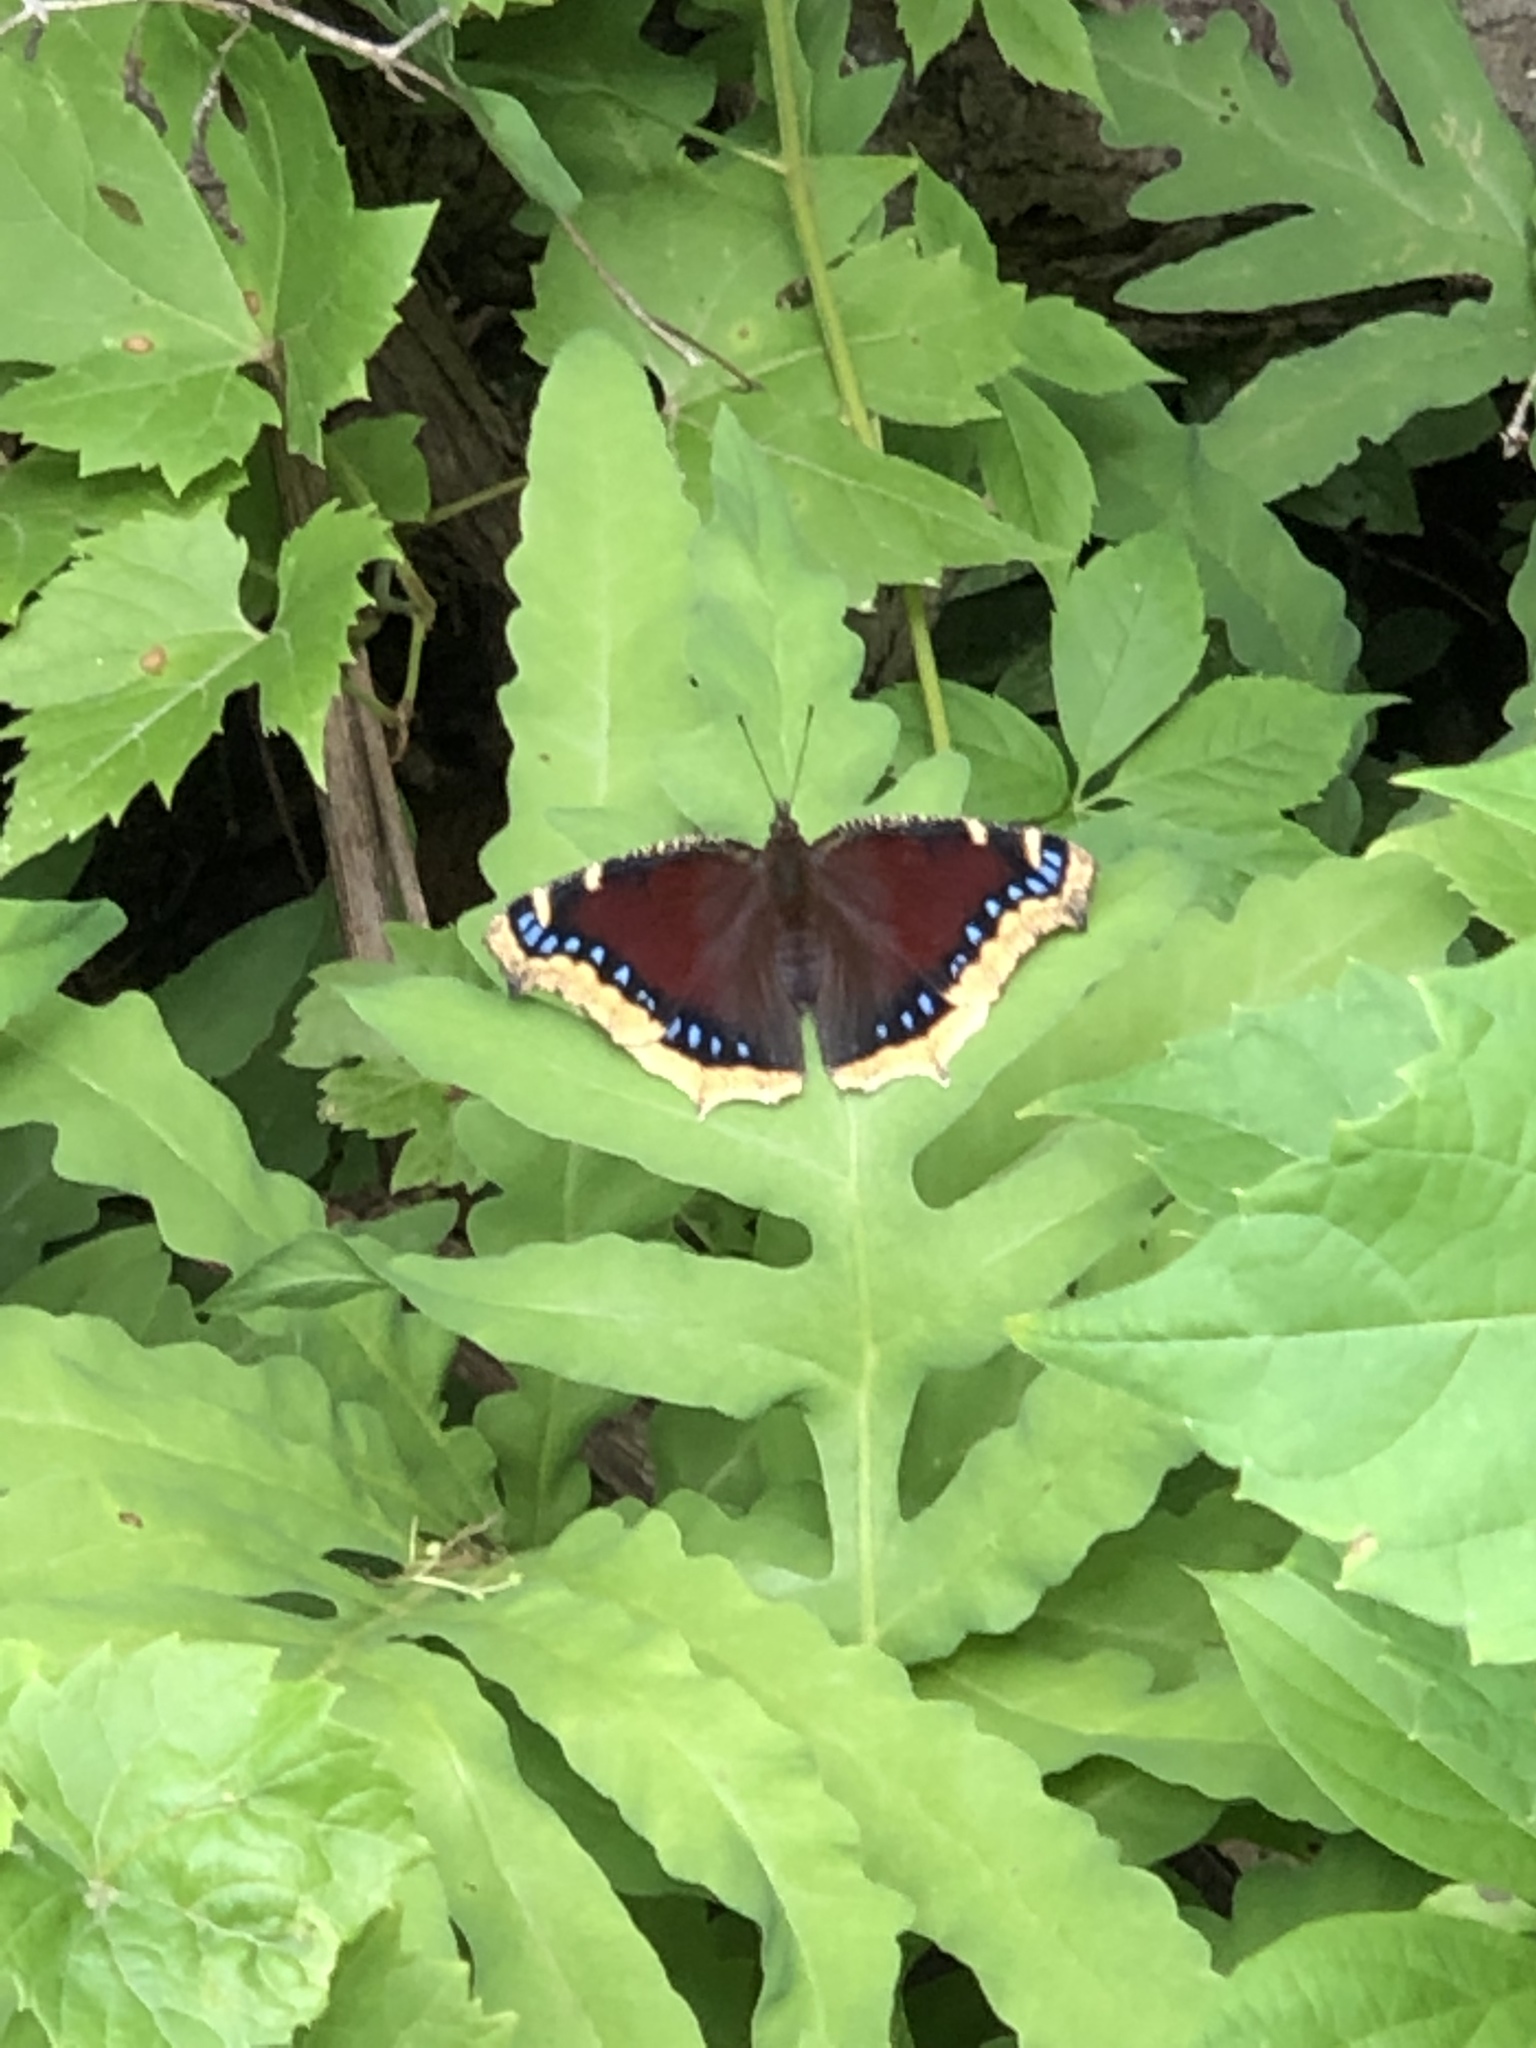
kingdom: Animalia
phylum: Arthropoda
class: Insecta
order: Lepidoptera
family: Nymphalidae
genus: Nymphalis
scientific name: Nymphalis antiopa
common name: Camberwell beauty
